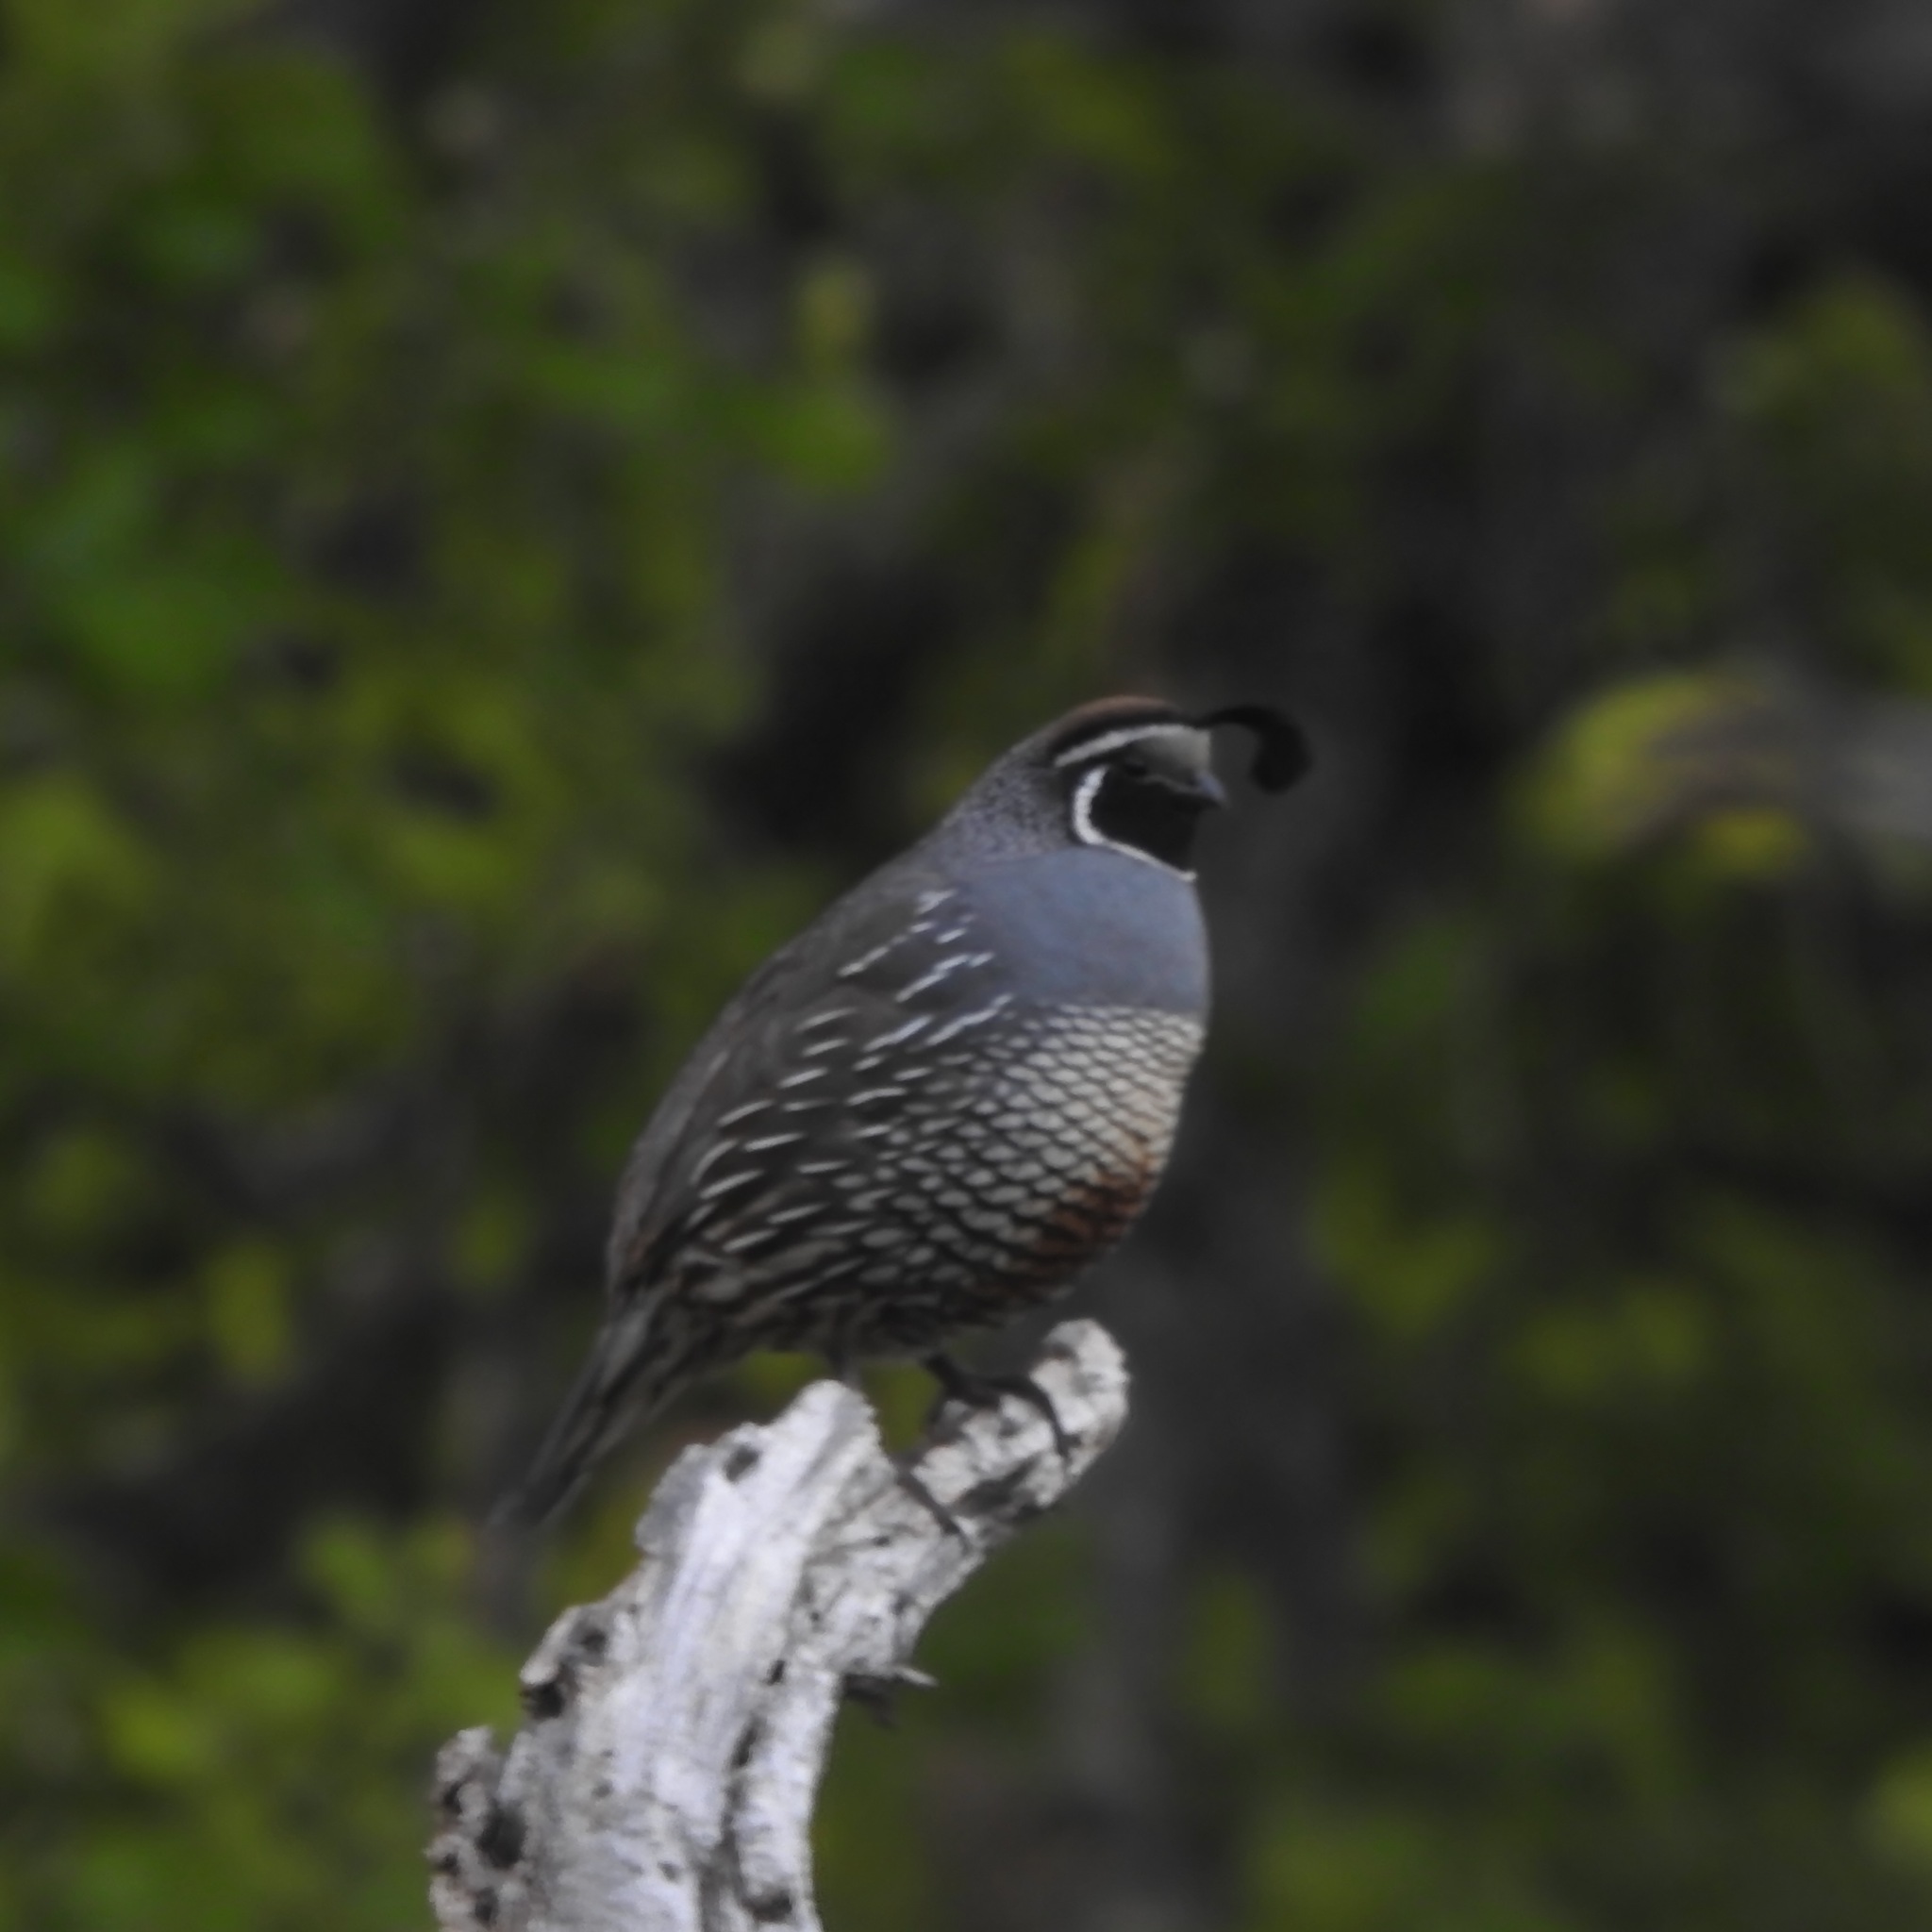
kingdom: Animalia
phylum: Chordata
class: Aves
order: Galliformes
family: Odontophoridae
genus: Callipepla
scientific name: Callipepla californica
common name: California quail
